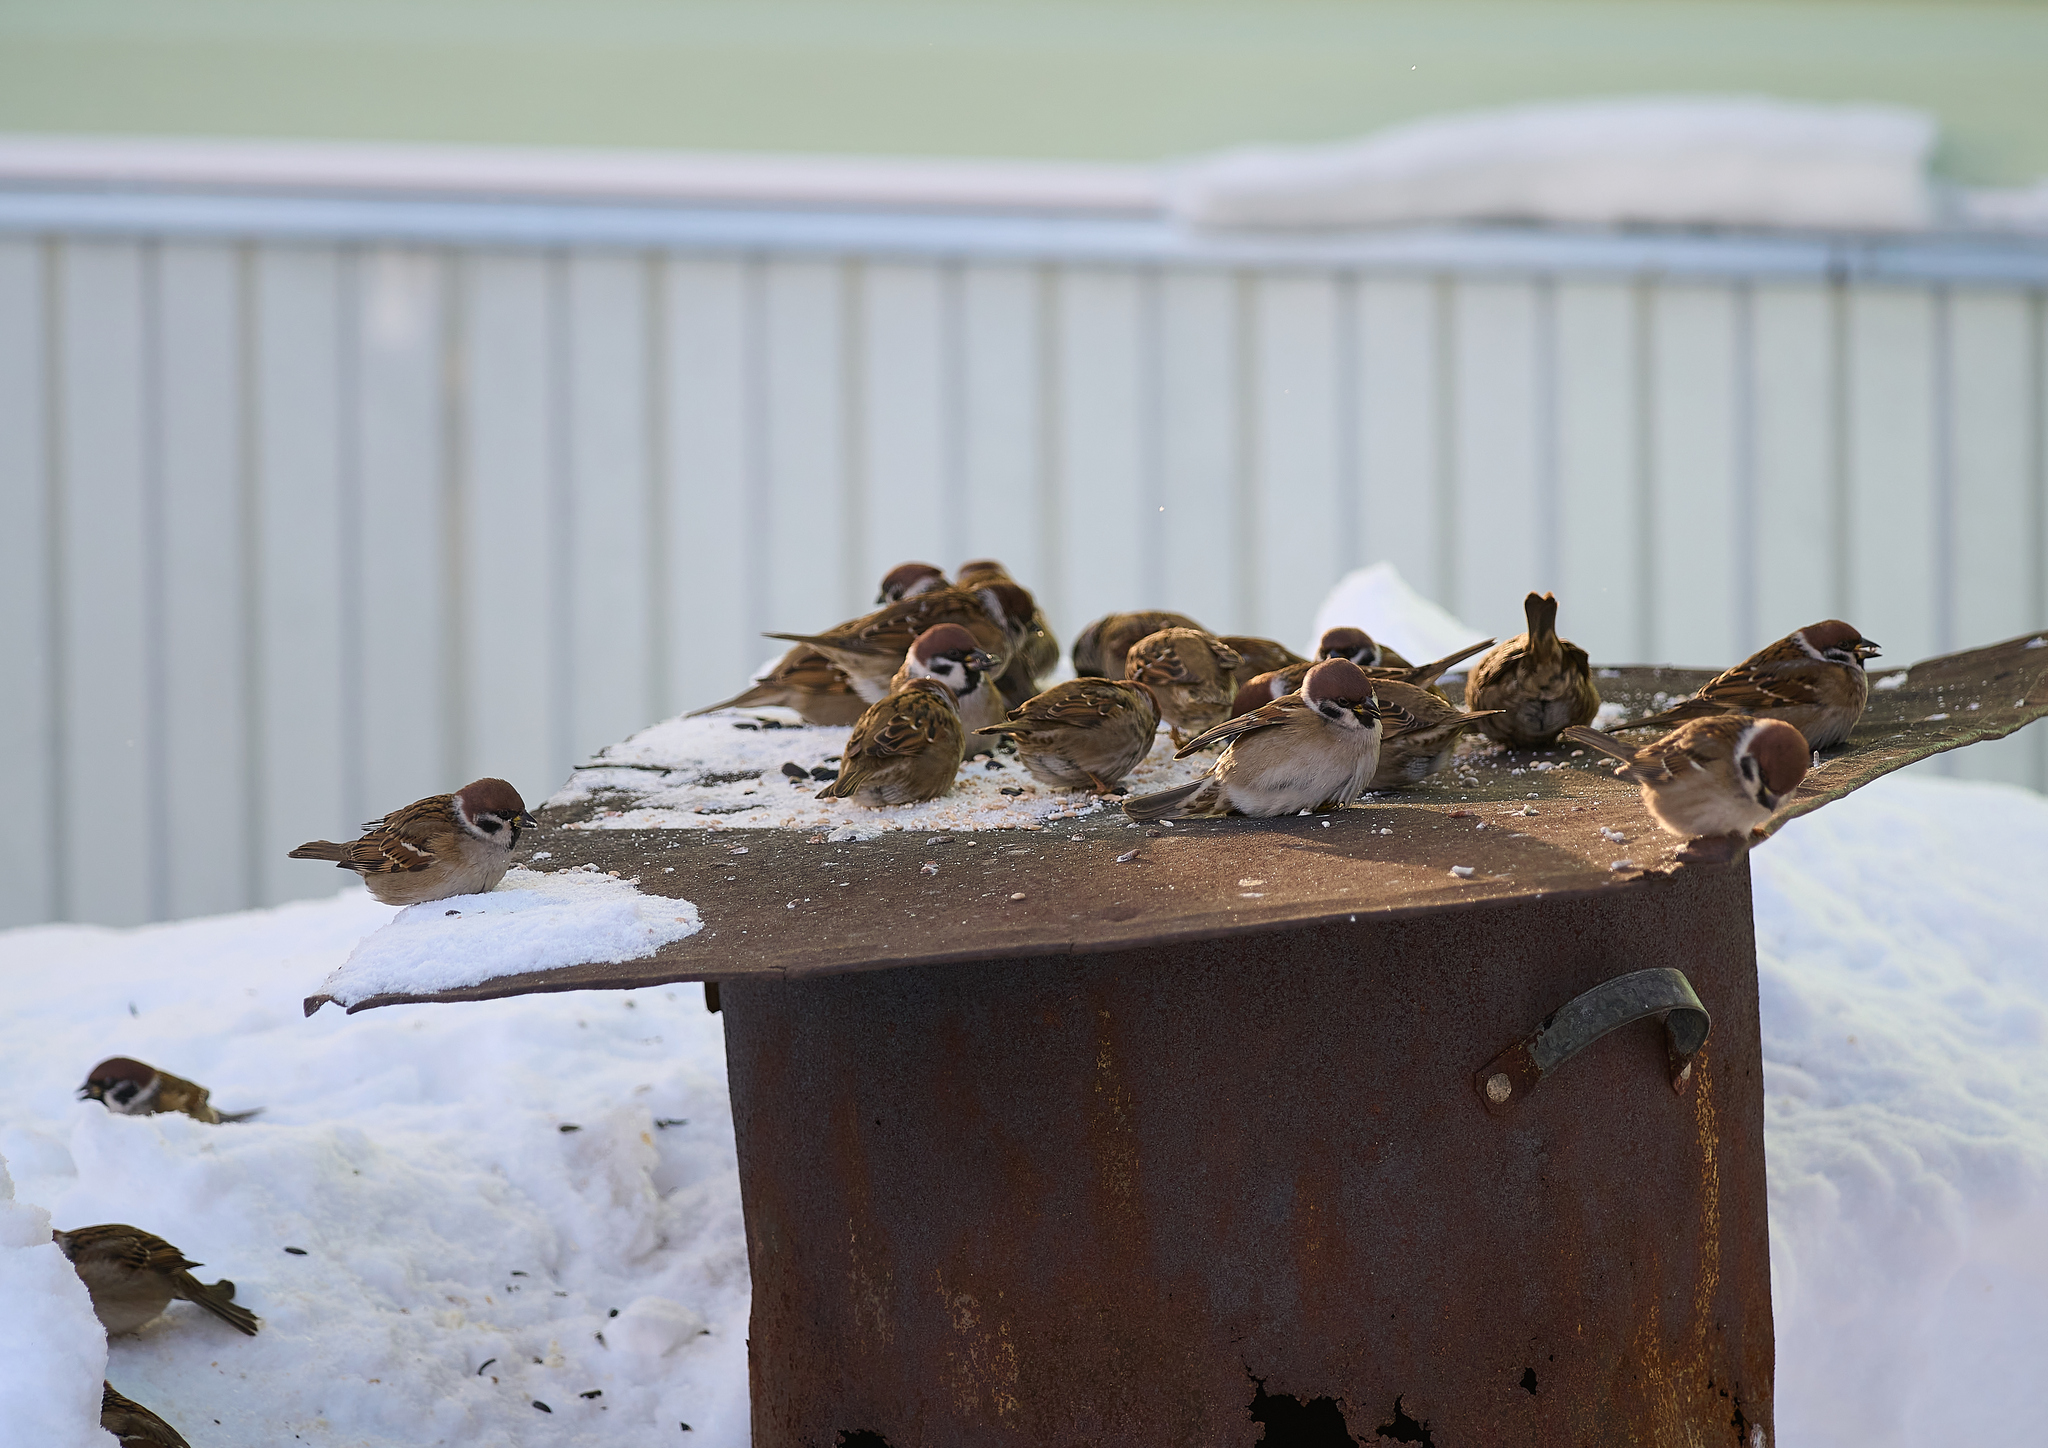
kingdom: Animalia
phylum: Chordata
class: Aves
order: Passeriformes
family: Passeridae
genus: Passer
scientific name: Passer montanus
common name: Eurasian tree sparrow
